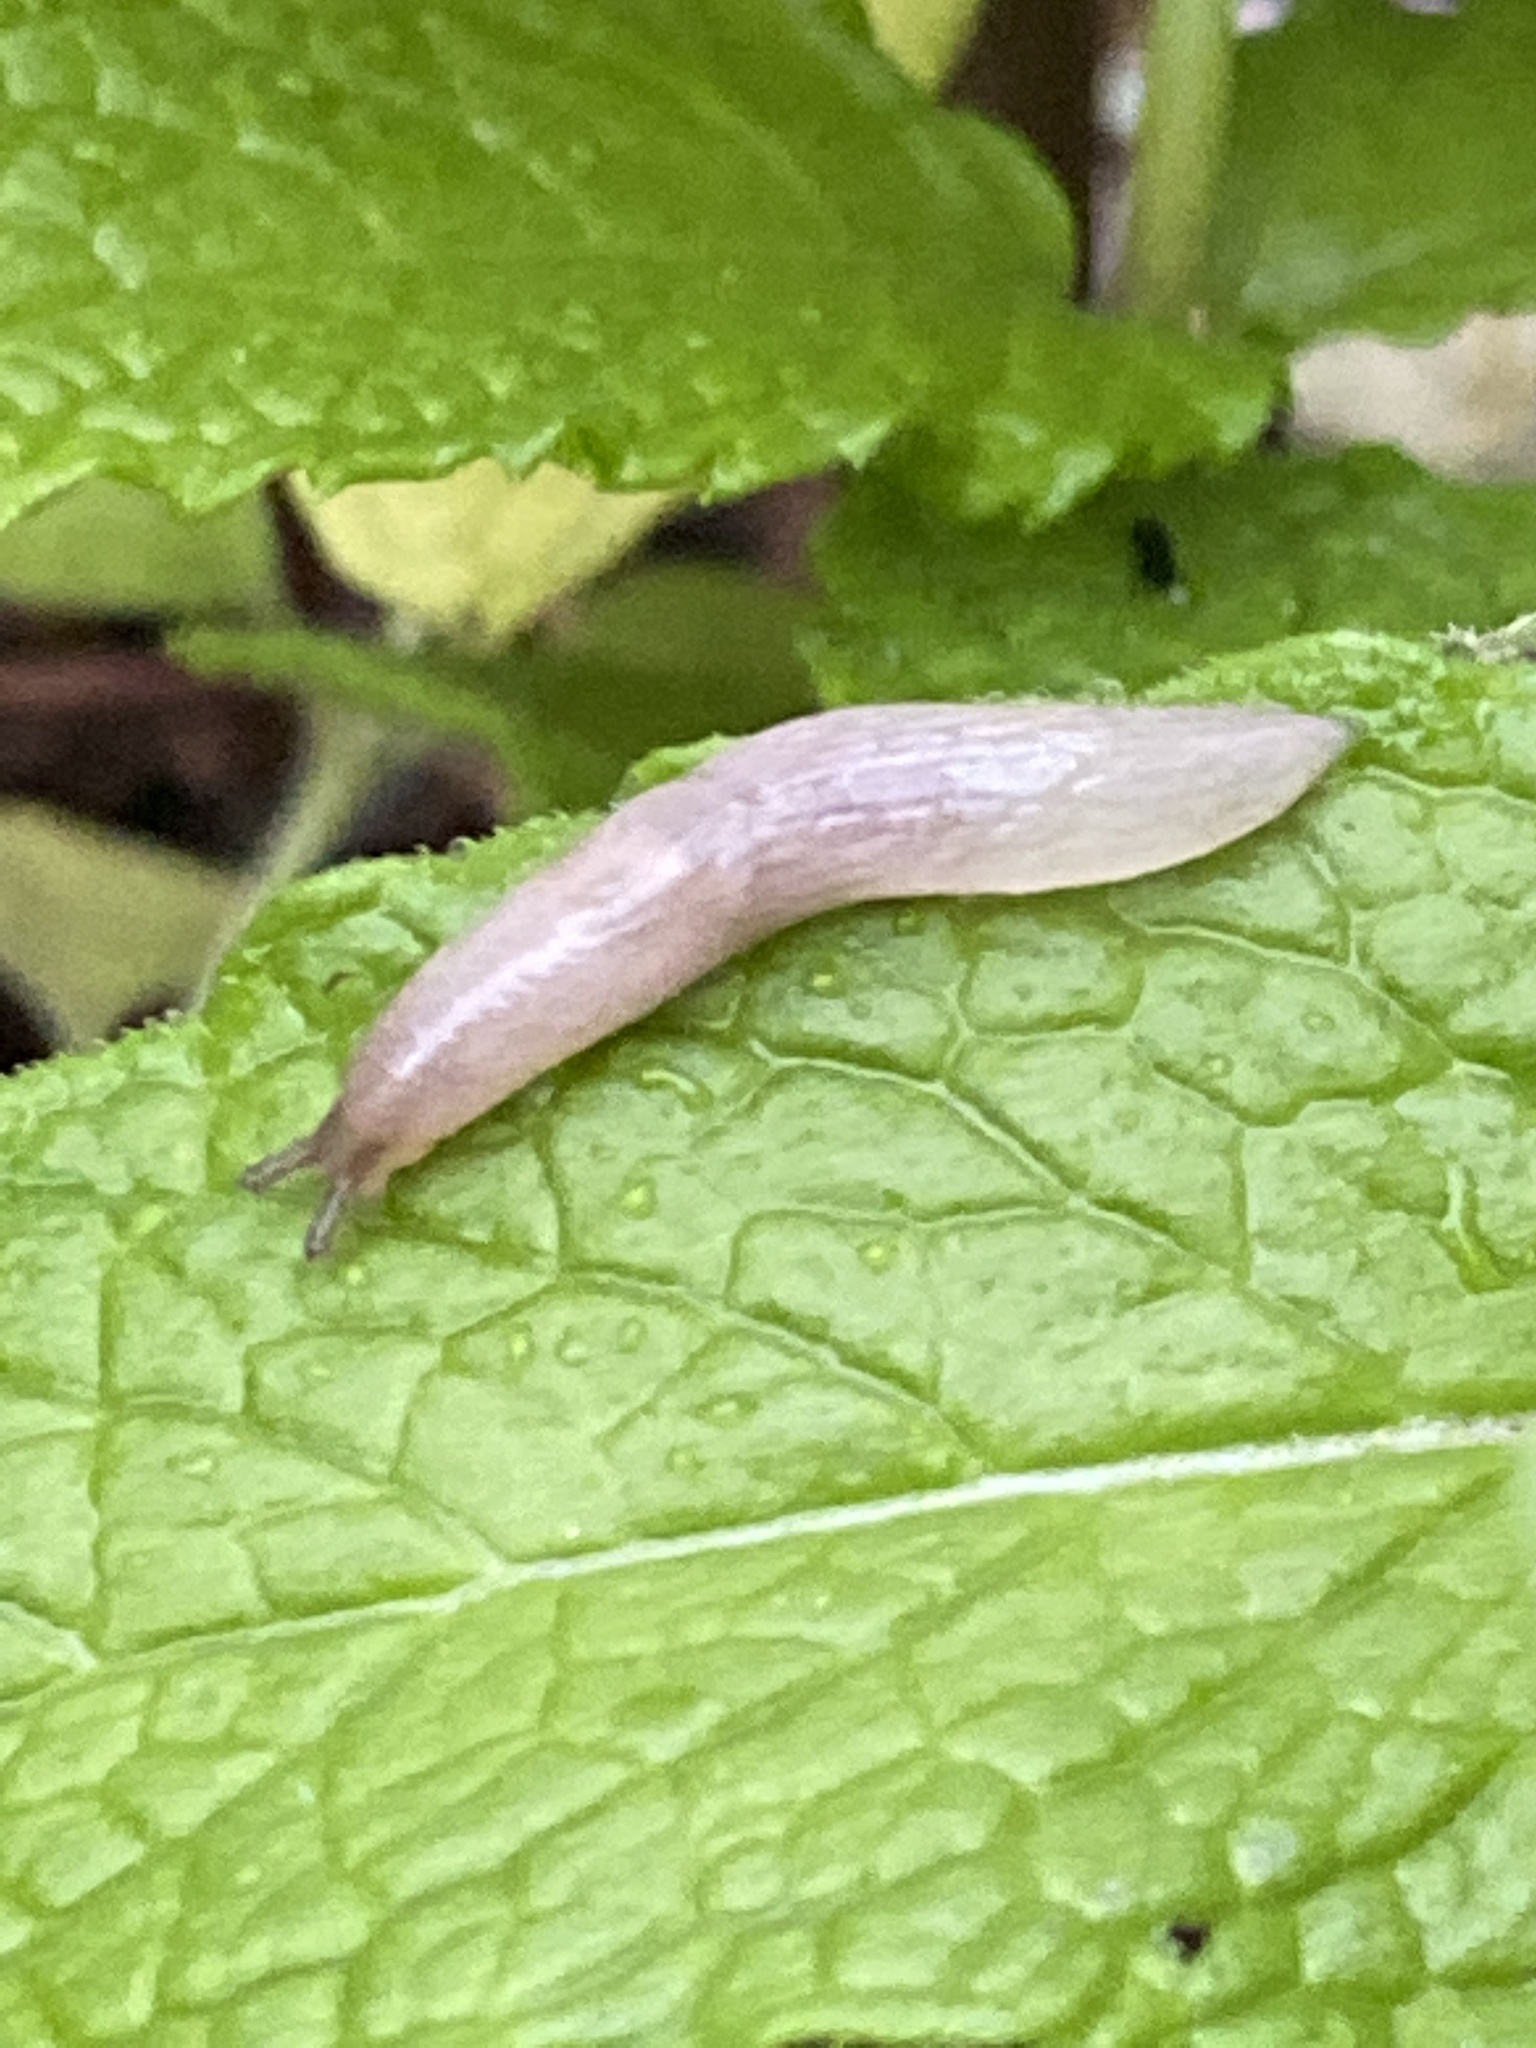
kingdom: Animalia
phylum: Mollusca
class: Gastropoda
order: Stylommatophora
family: Agriolimacidae
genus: Deroceras
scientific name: Deroceras reticulatum
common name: Gray field slug
